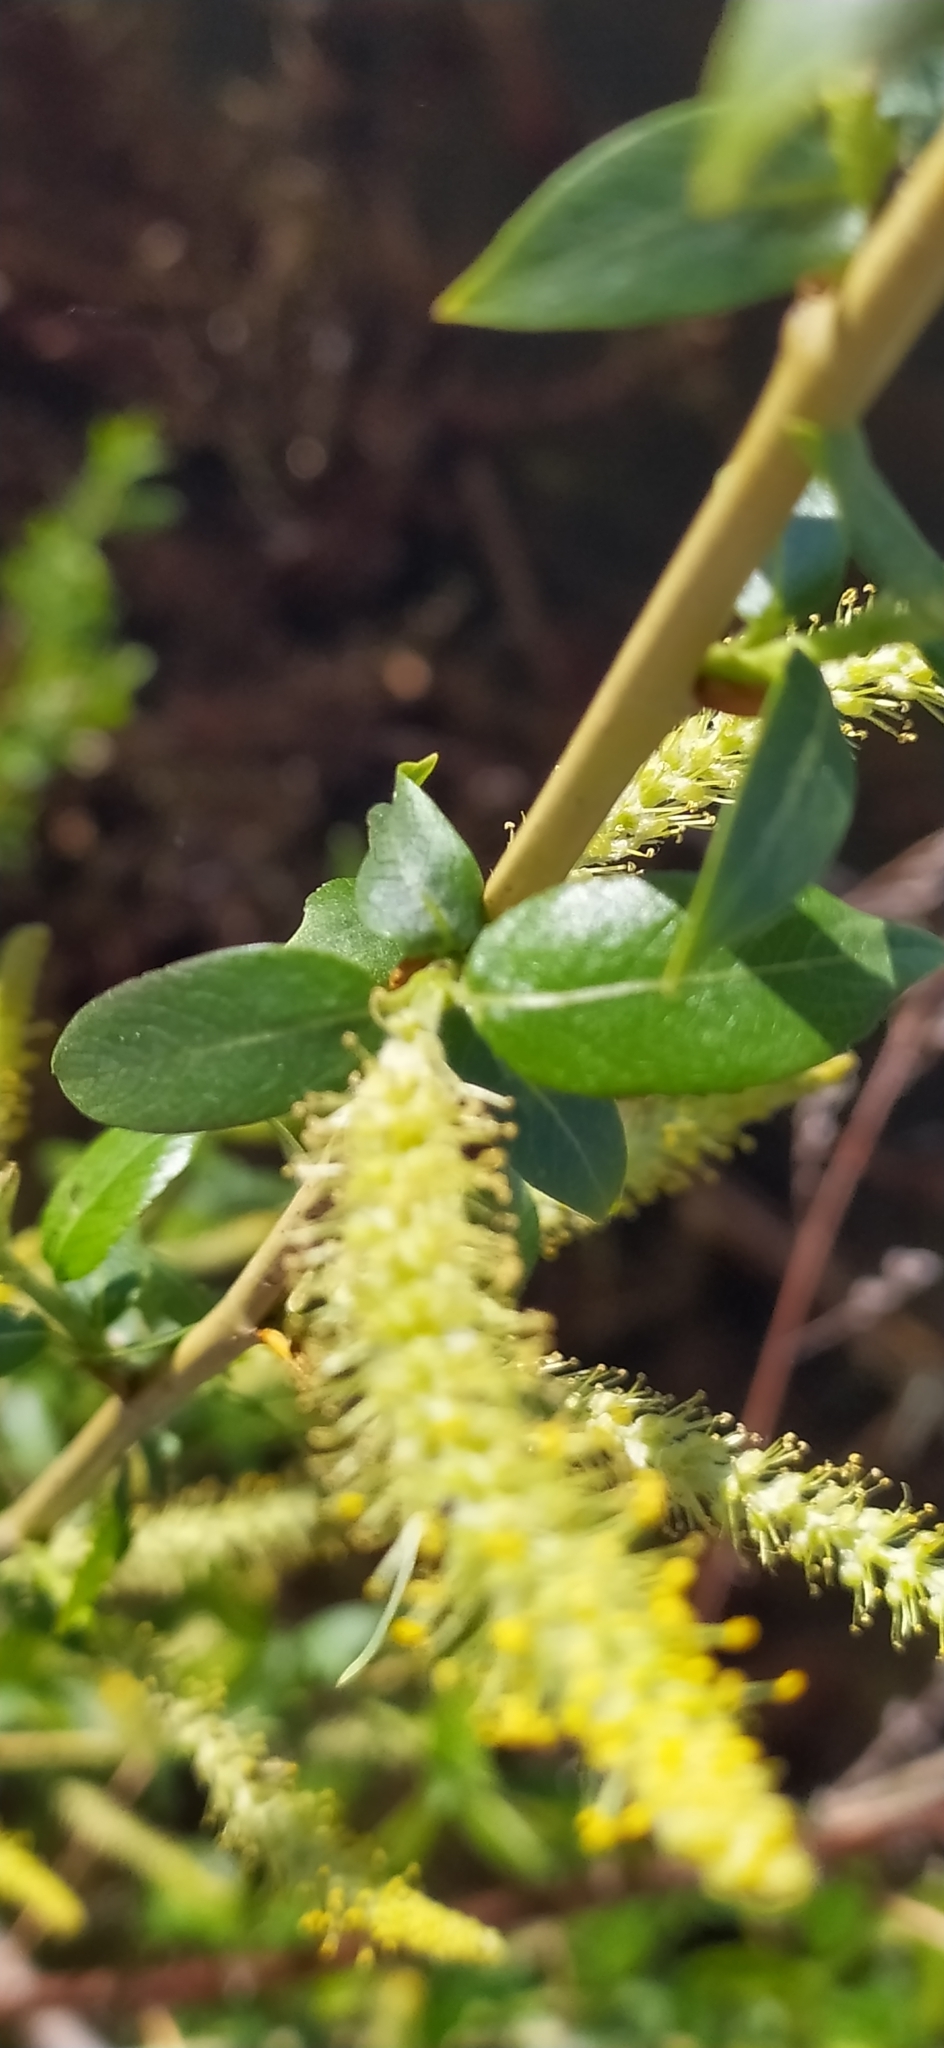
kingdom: Plantae
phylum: Tracheophyta
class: Magnoliopsida
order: Malpighiales
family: Salicaceae
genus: Salix
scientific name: Salix triandra
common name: Almond willow
